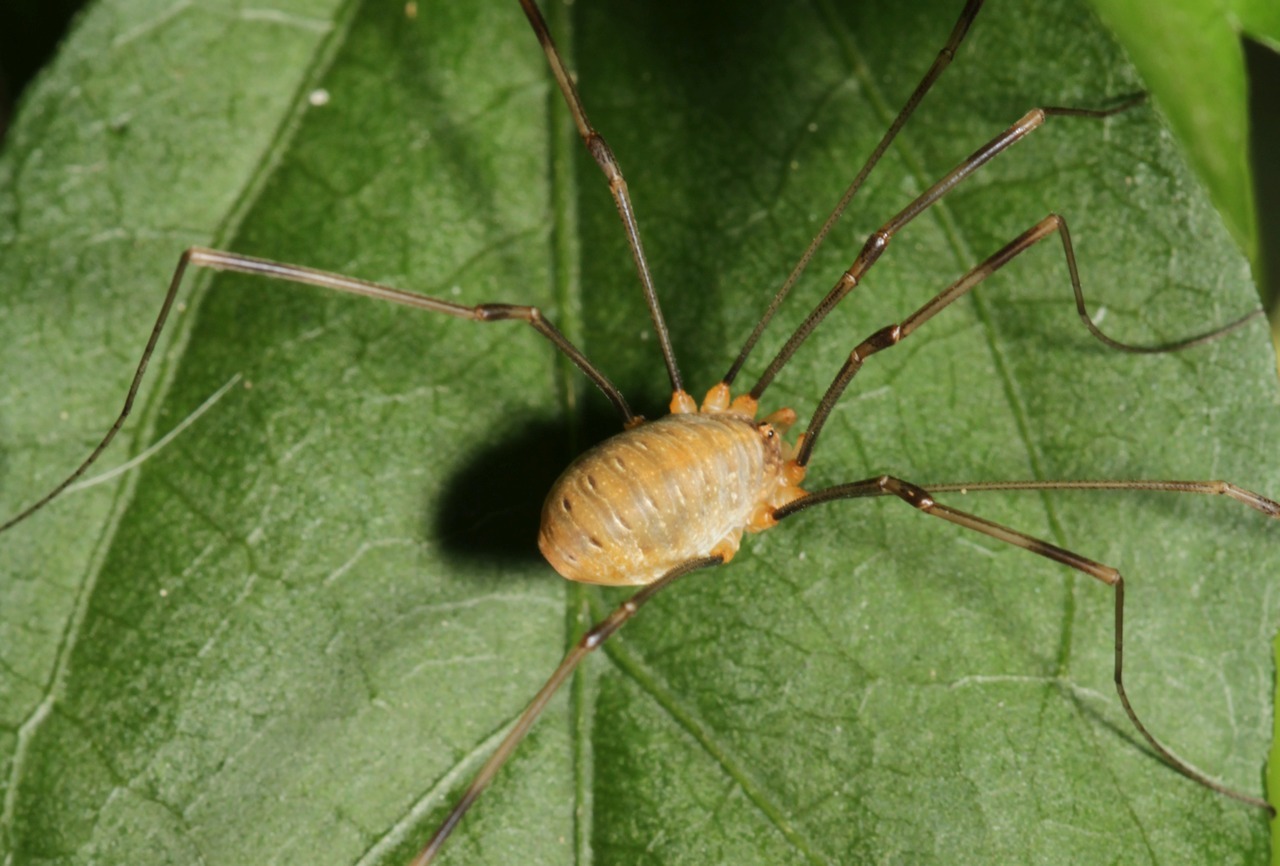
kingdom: Animalia
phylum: Arthropoda
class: Arachnida
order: Opiliones
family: Phalangiidae
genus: Opilio
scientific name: Opilio canestrinii
